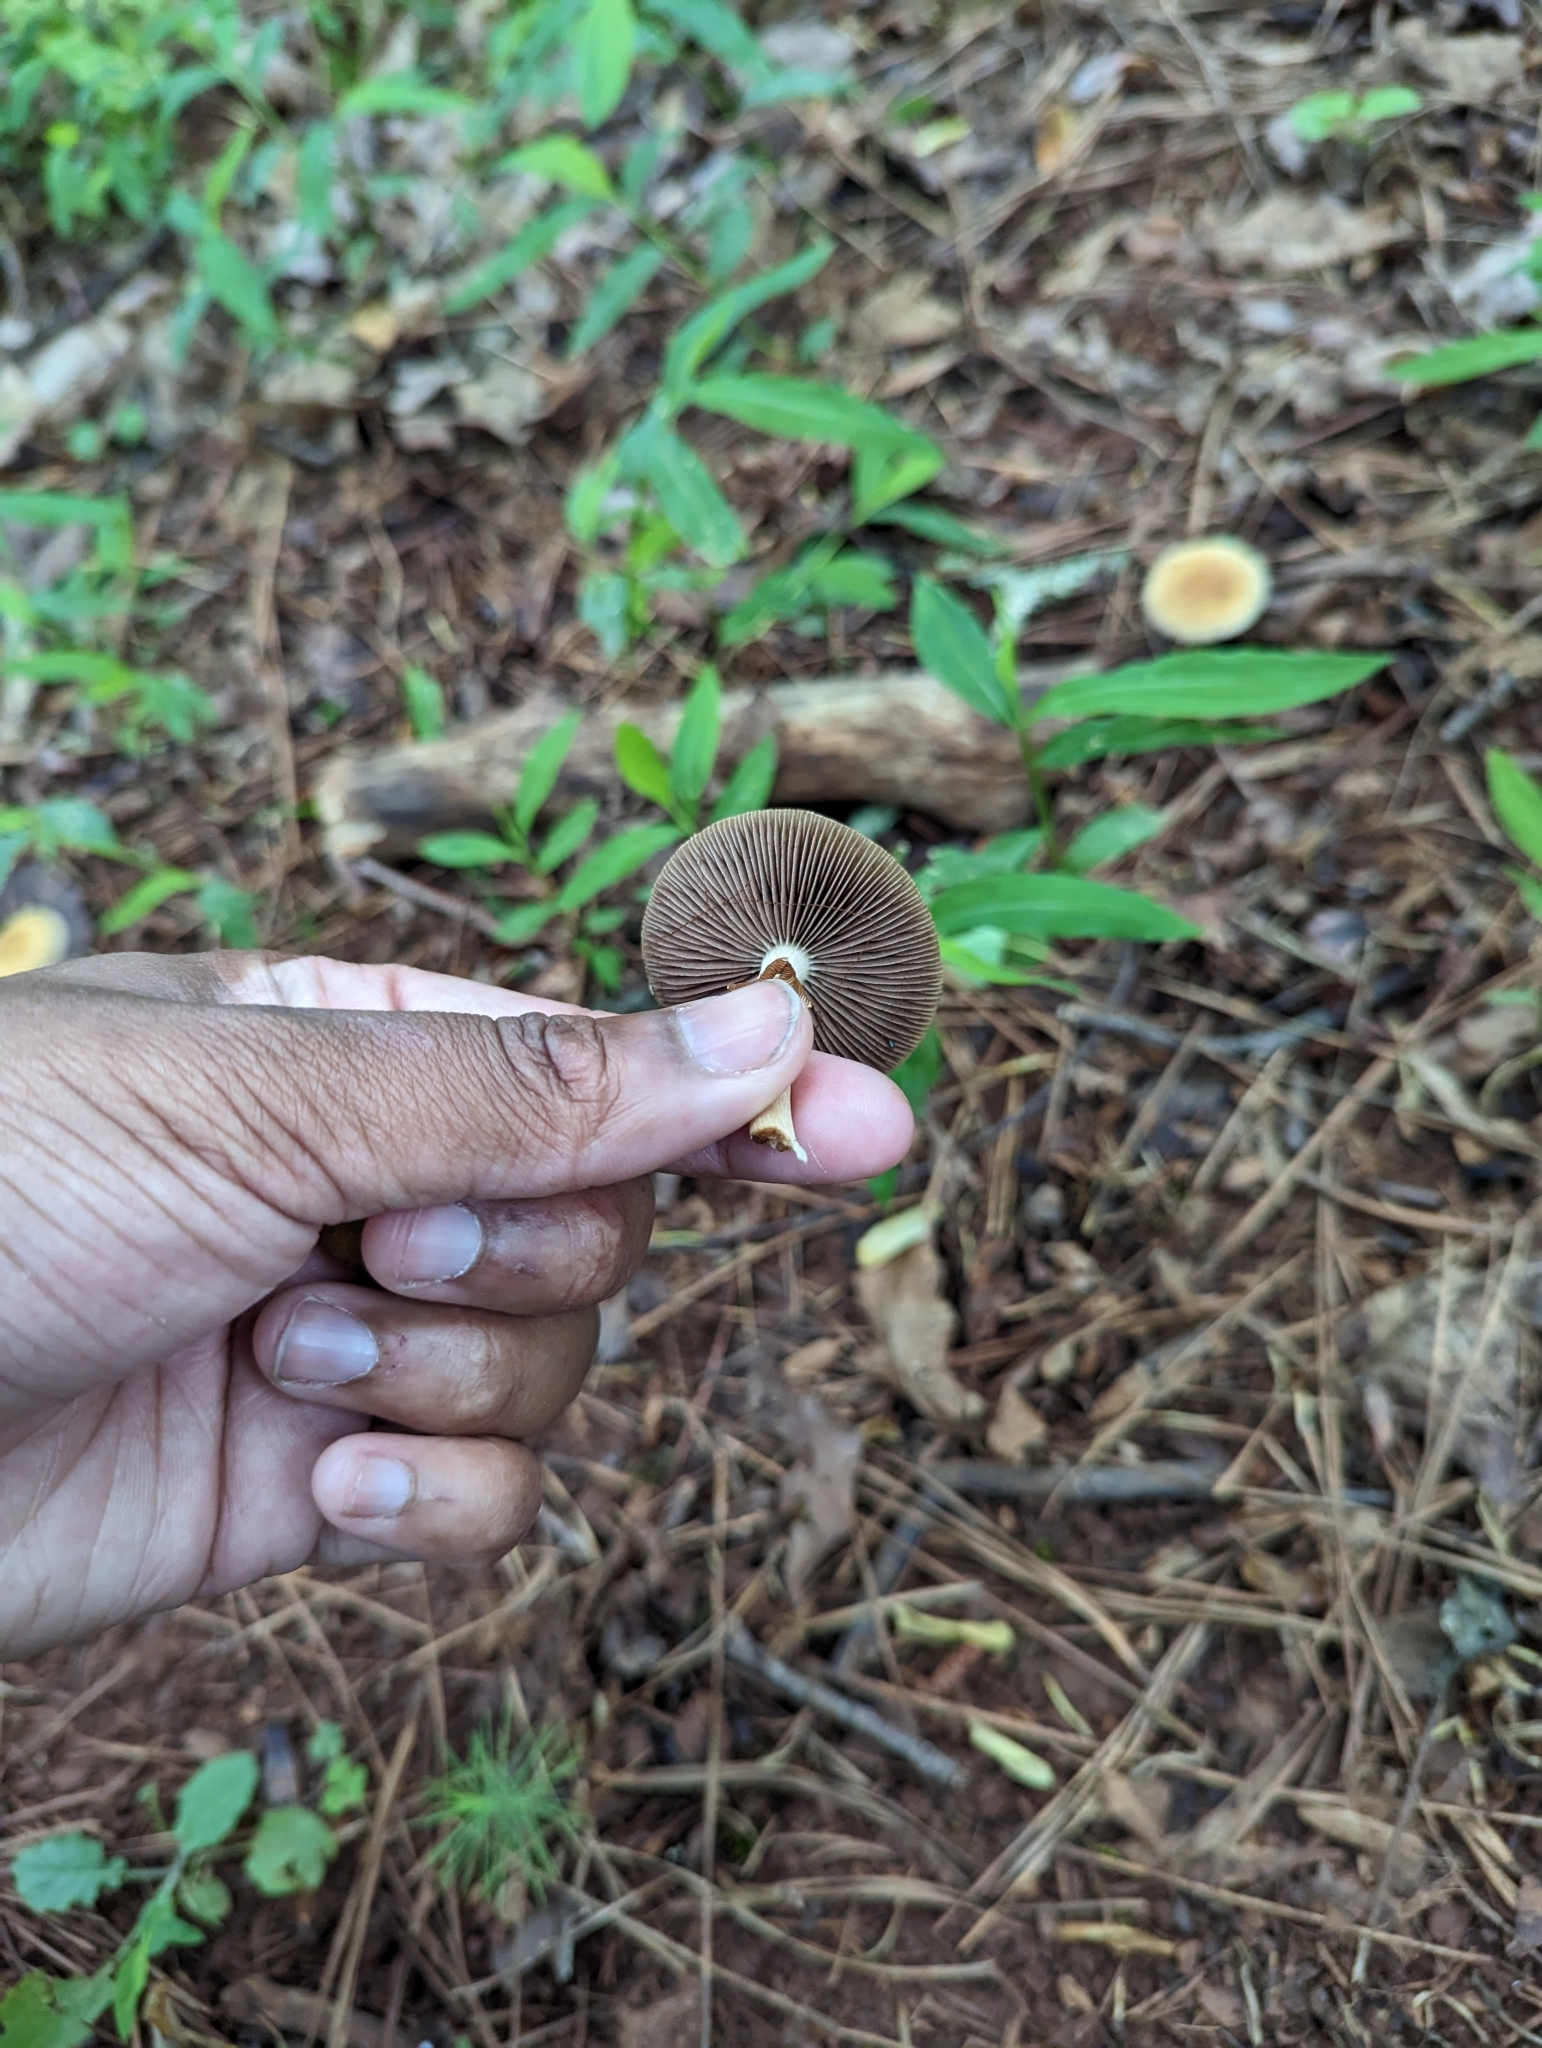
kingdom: Fungi
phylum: Basidiomycota
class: Agaricomycetes
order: Agaricales
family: Strophariaceae
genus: Agrocybe
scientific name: Agrocybe acericola
